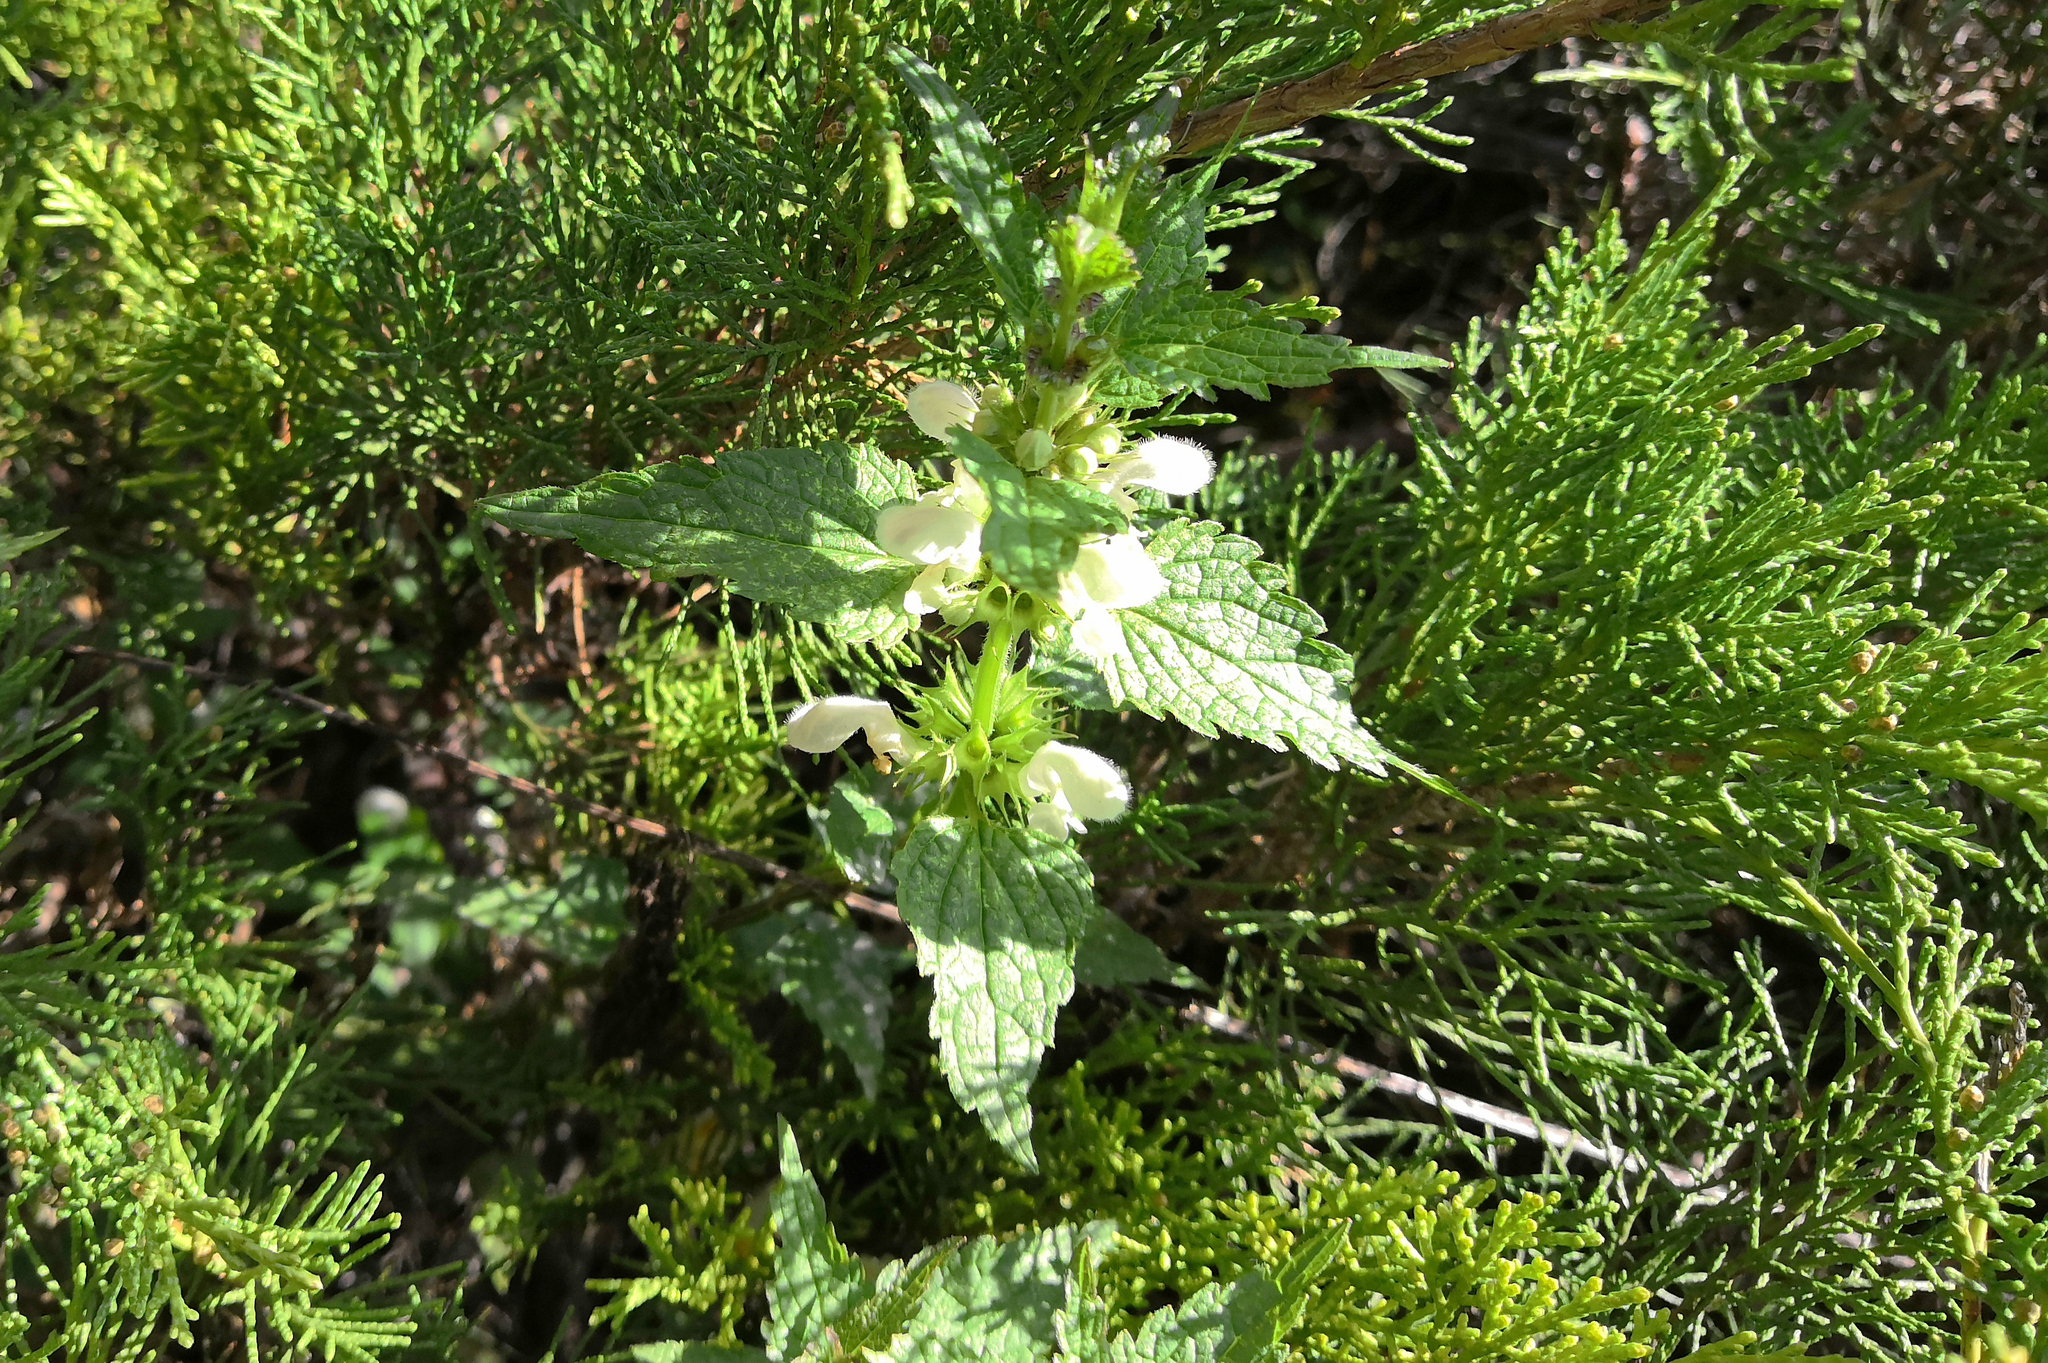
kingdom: Plantae
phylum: Tracheophyta
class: Magnoliopsida
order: Lamiales
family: Lamiaceae
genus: Lamium
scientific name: Lamium album
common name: White dead-nettle
